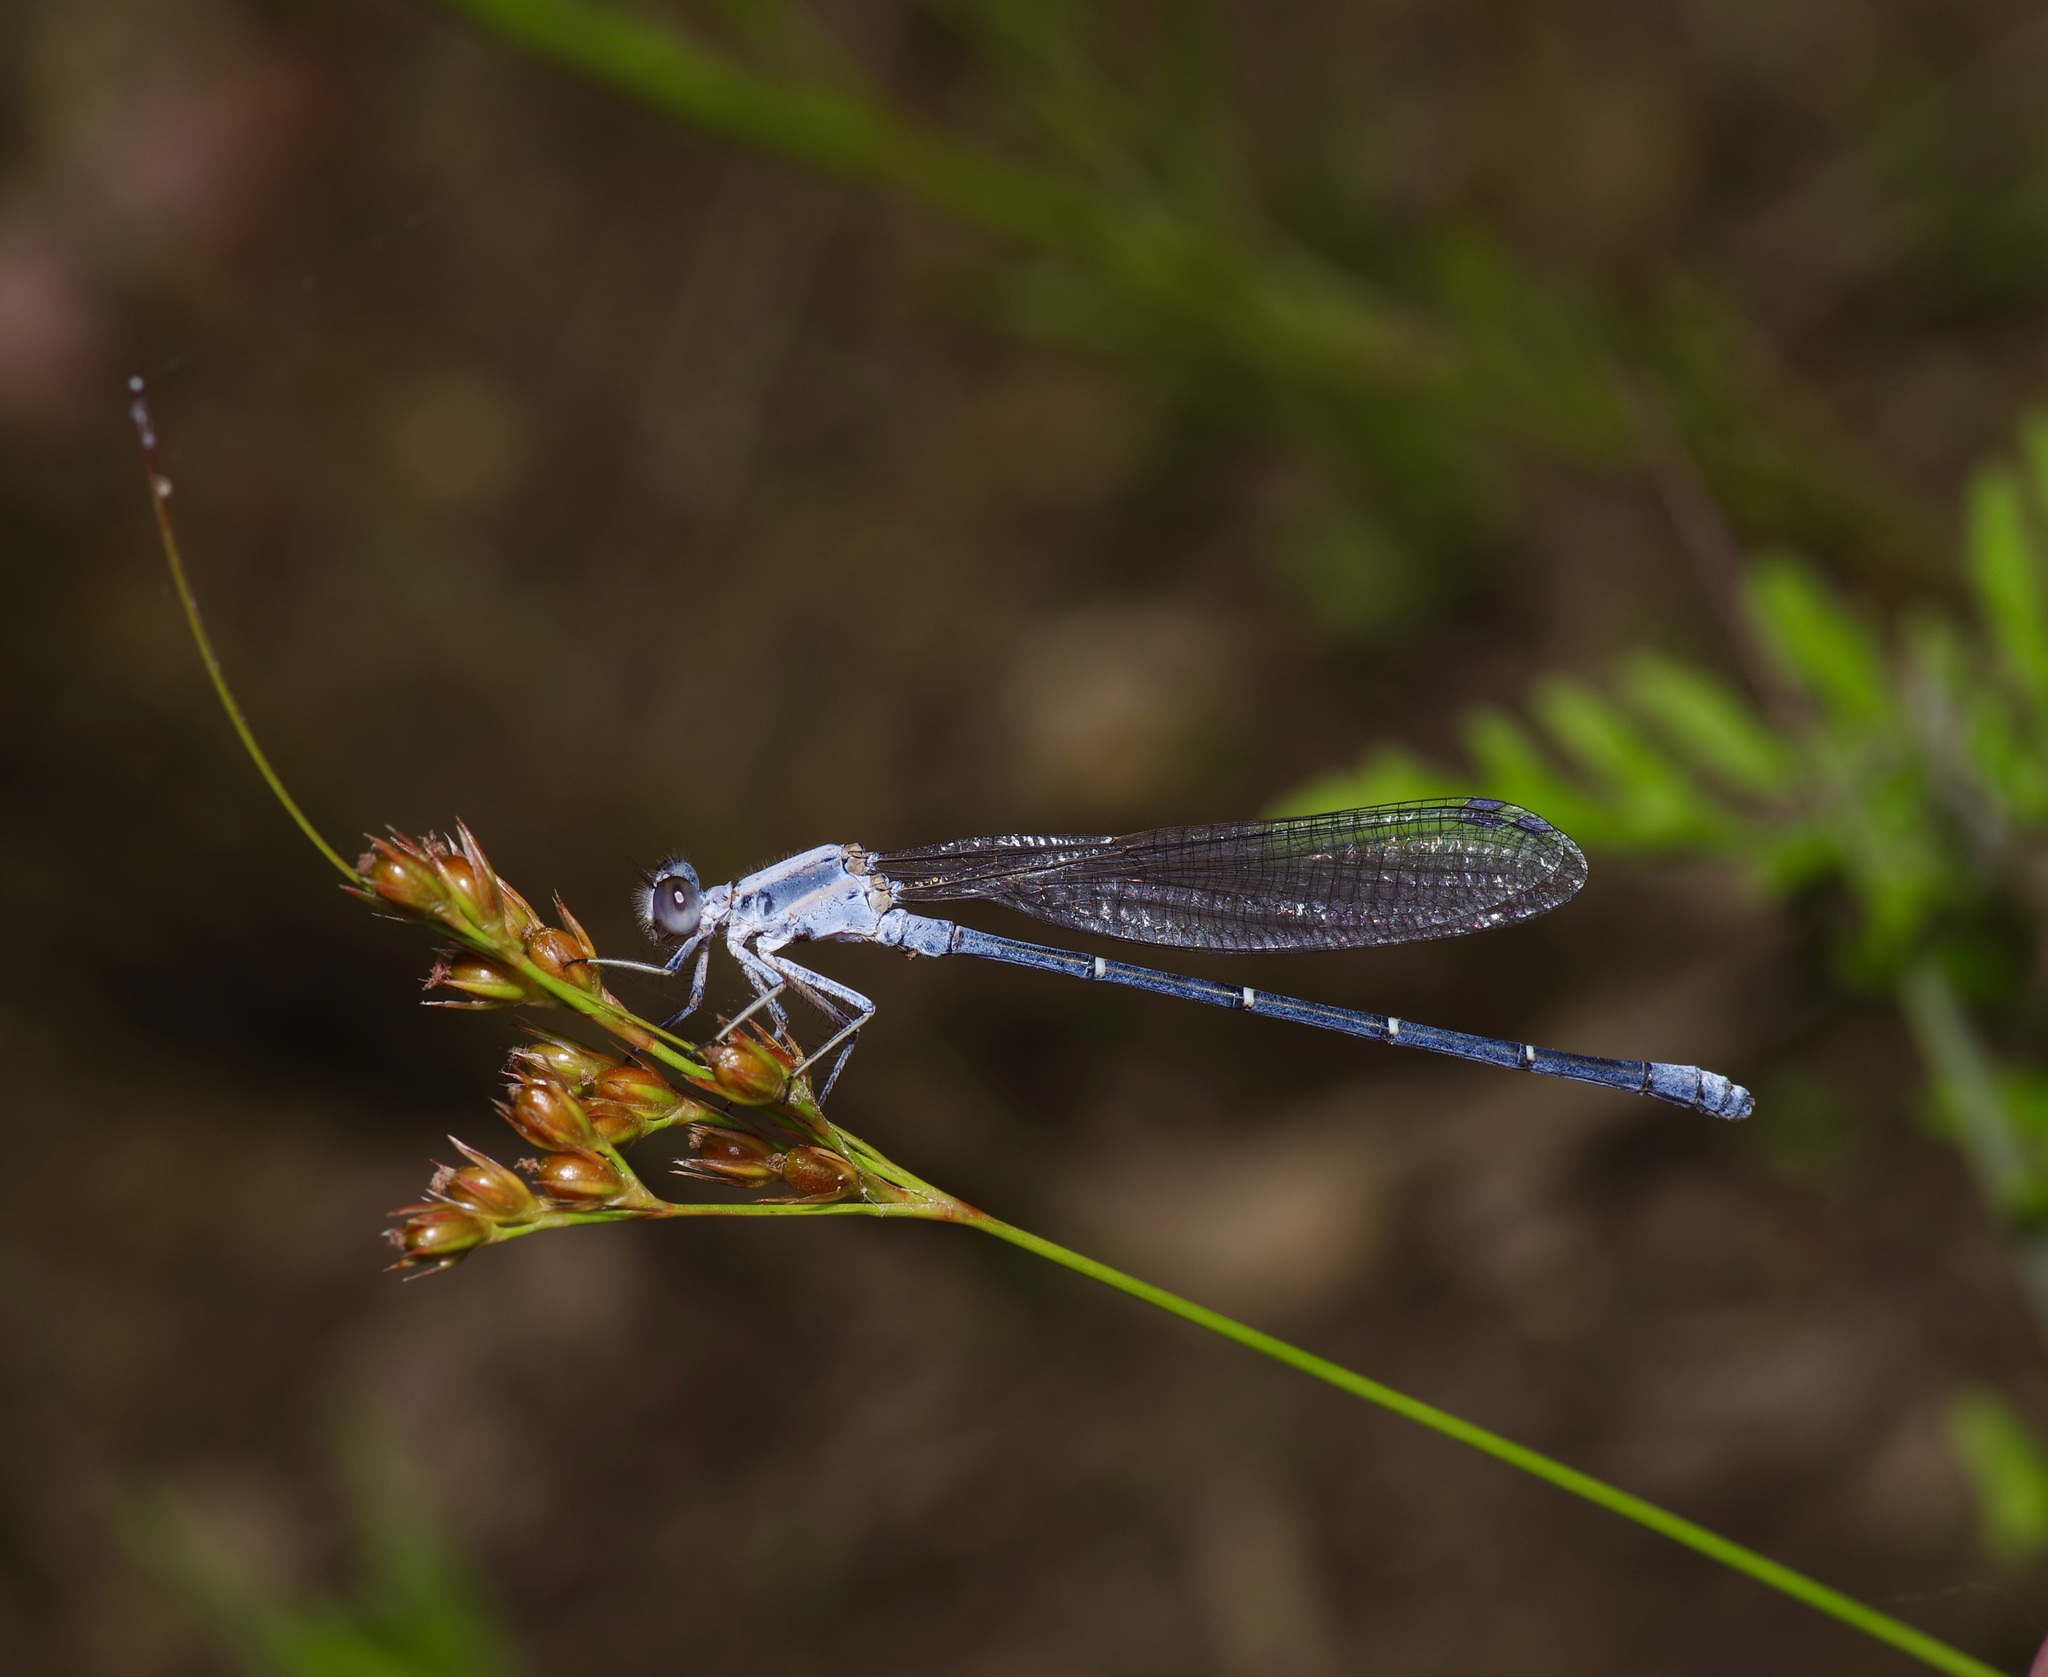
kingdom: Animalia
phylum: Arthropoda
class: Insecta
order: Odonata
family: Coenagrionidae
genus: Argia
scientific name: Argia moesta
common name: Powdered dancer
